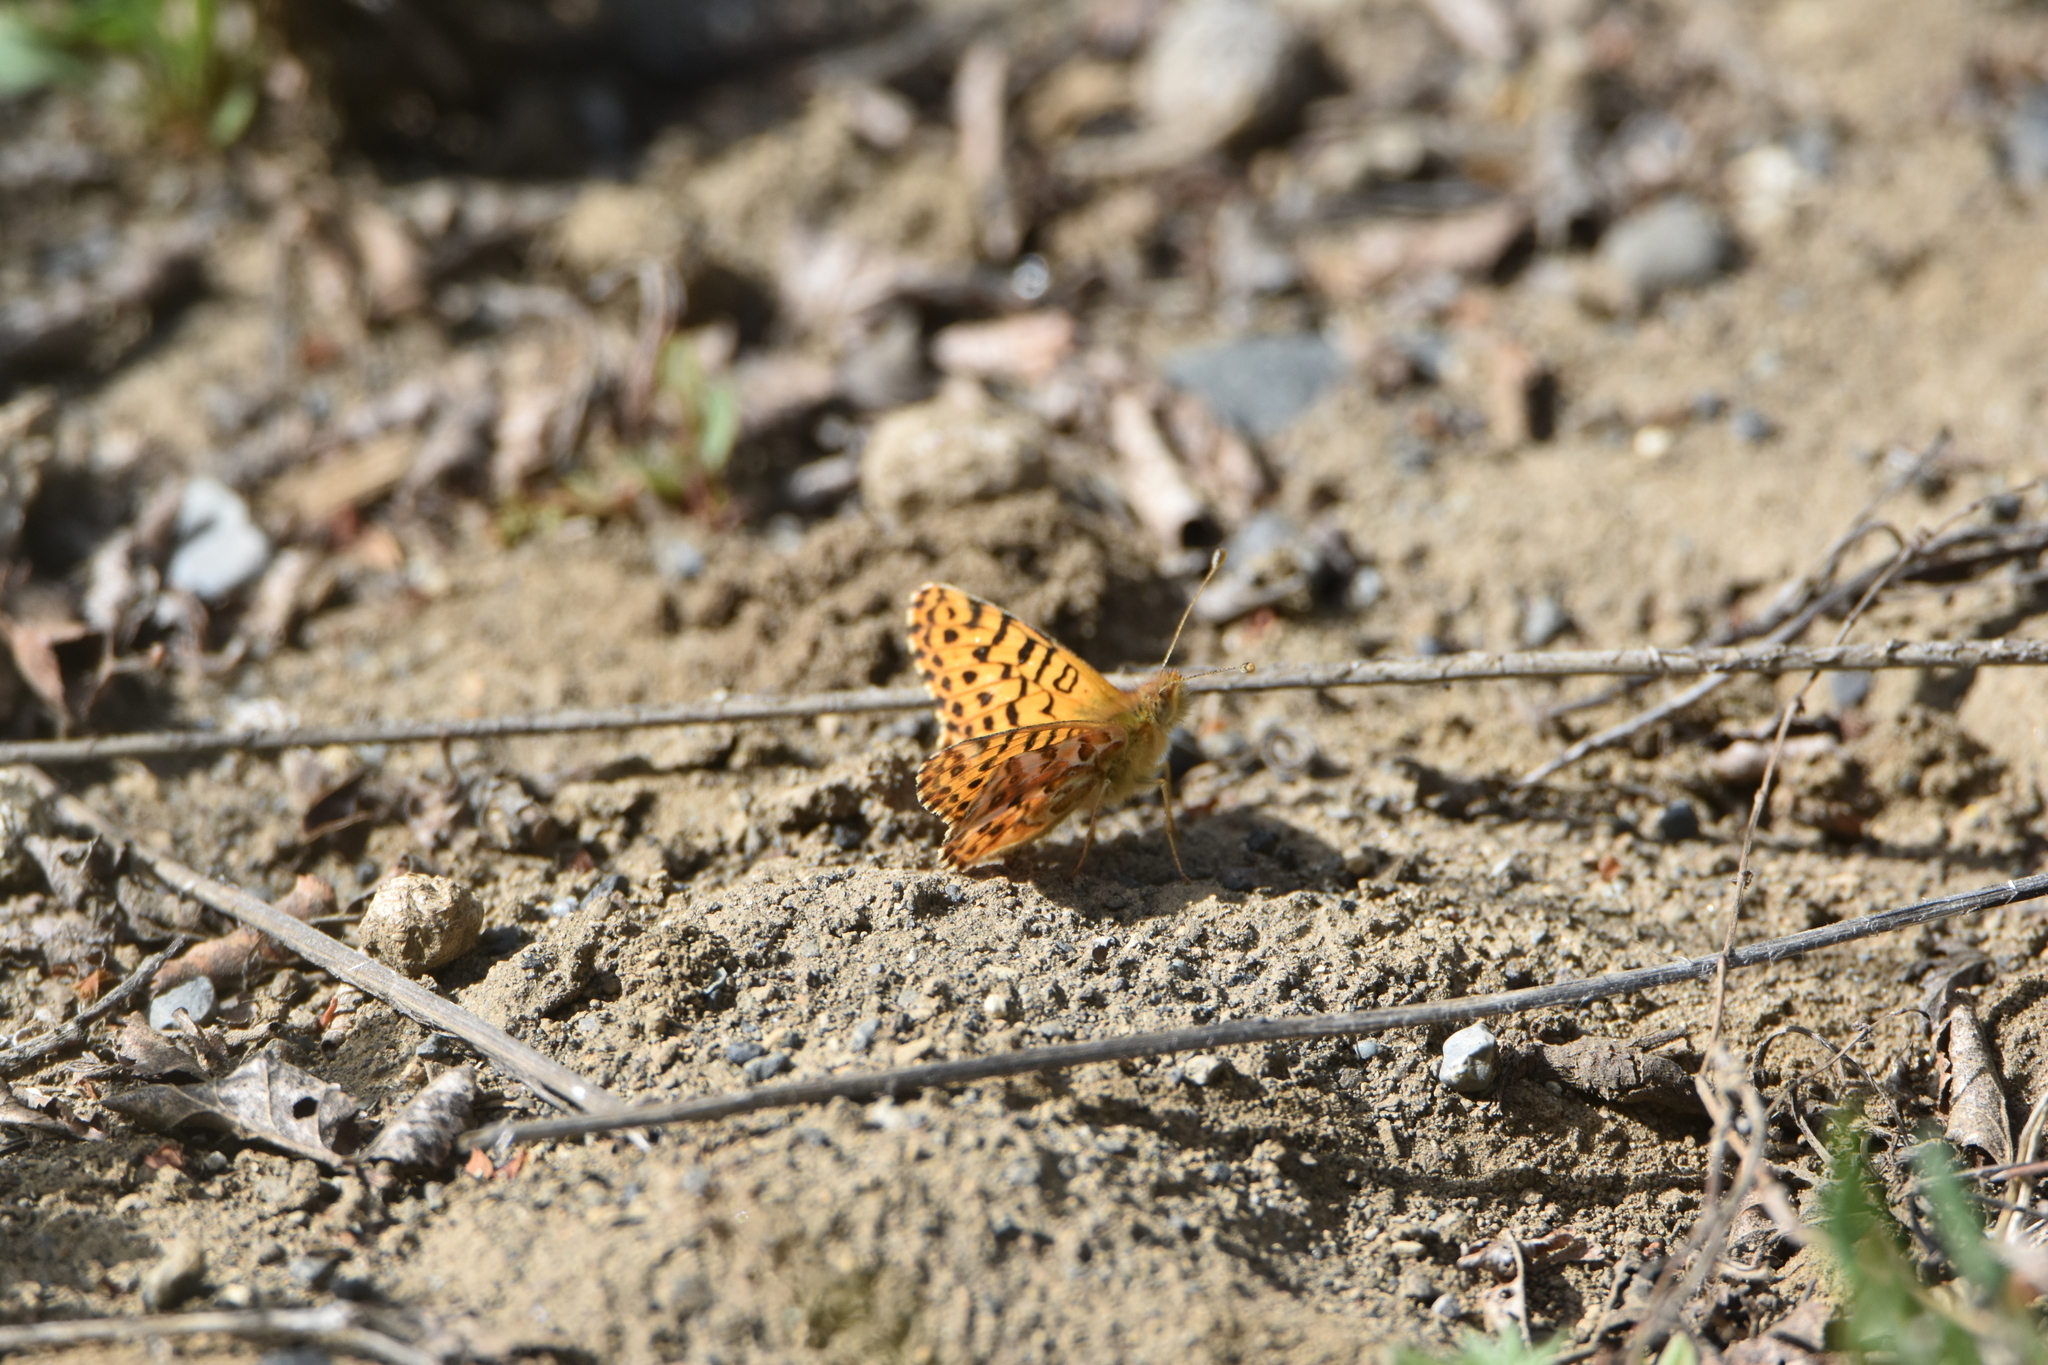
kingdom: Animalia
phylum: Arthropoda
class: Insecta
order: Lepidoptera
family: Nymphalidae
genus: Issoria
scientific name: Issoria Yramea lathonoides
